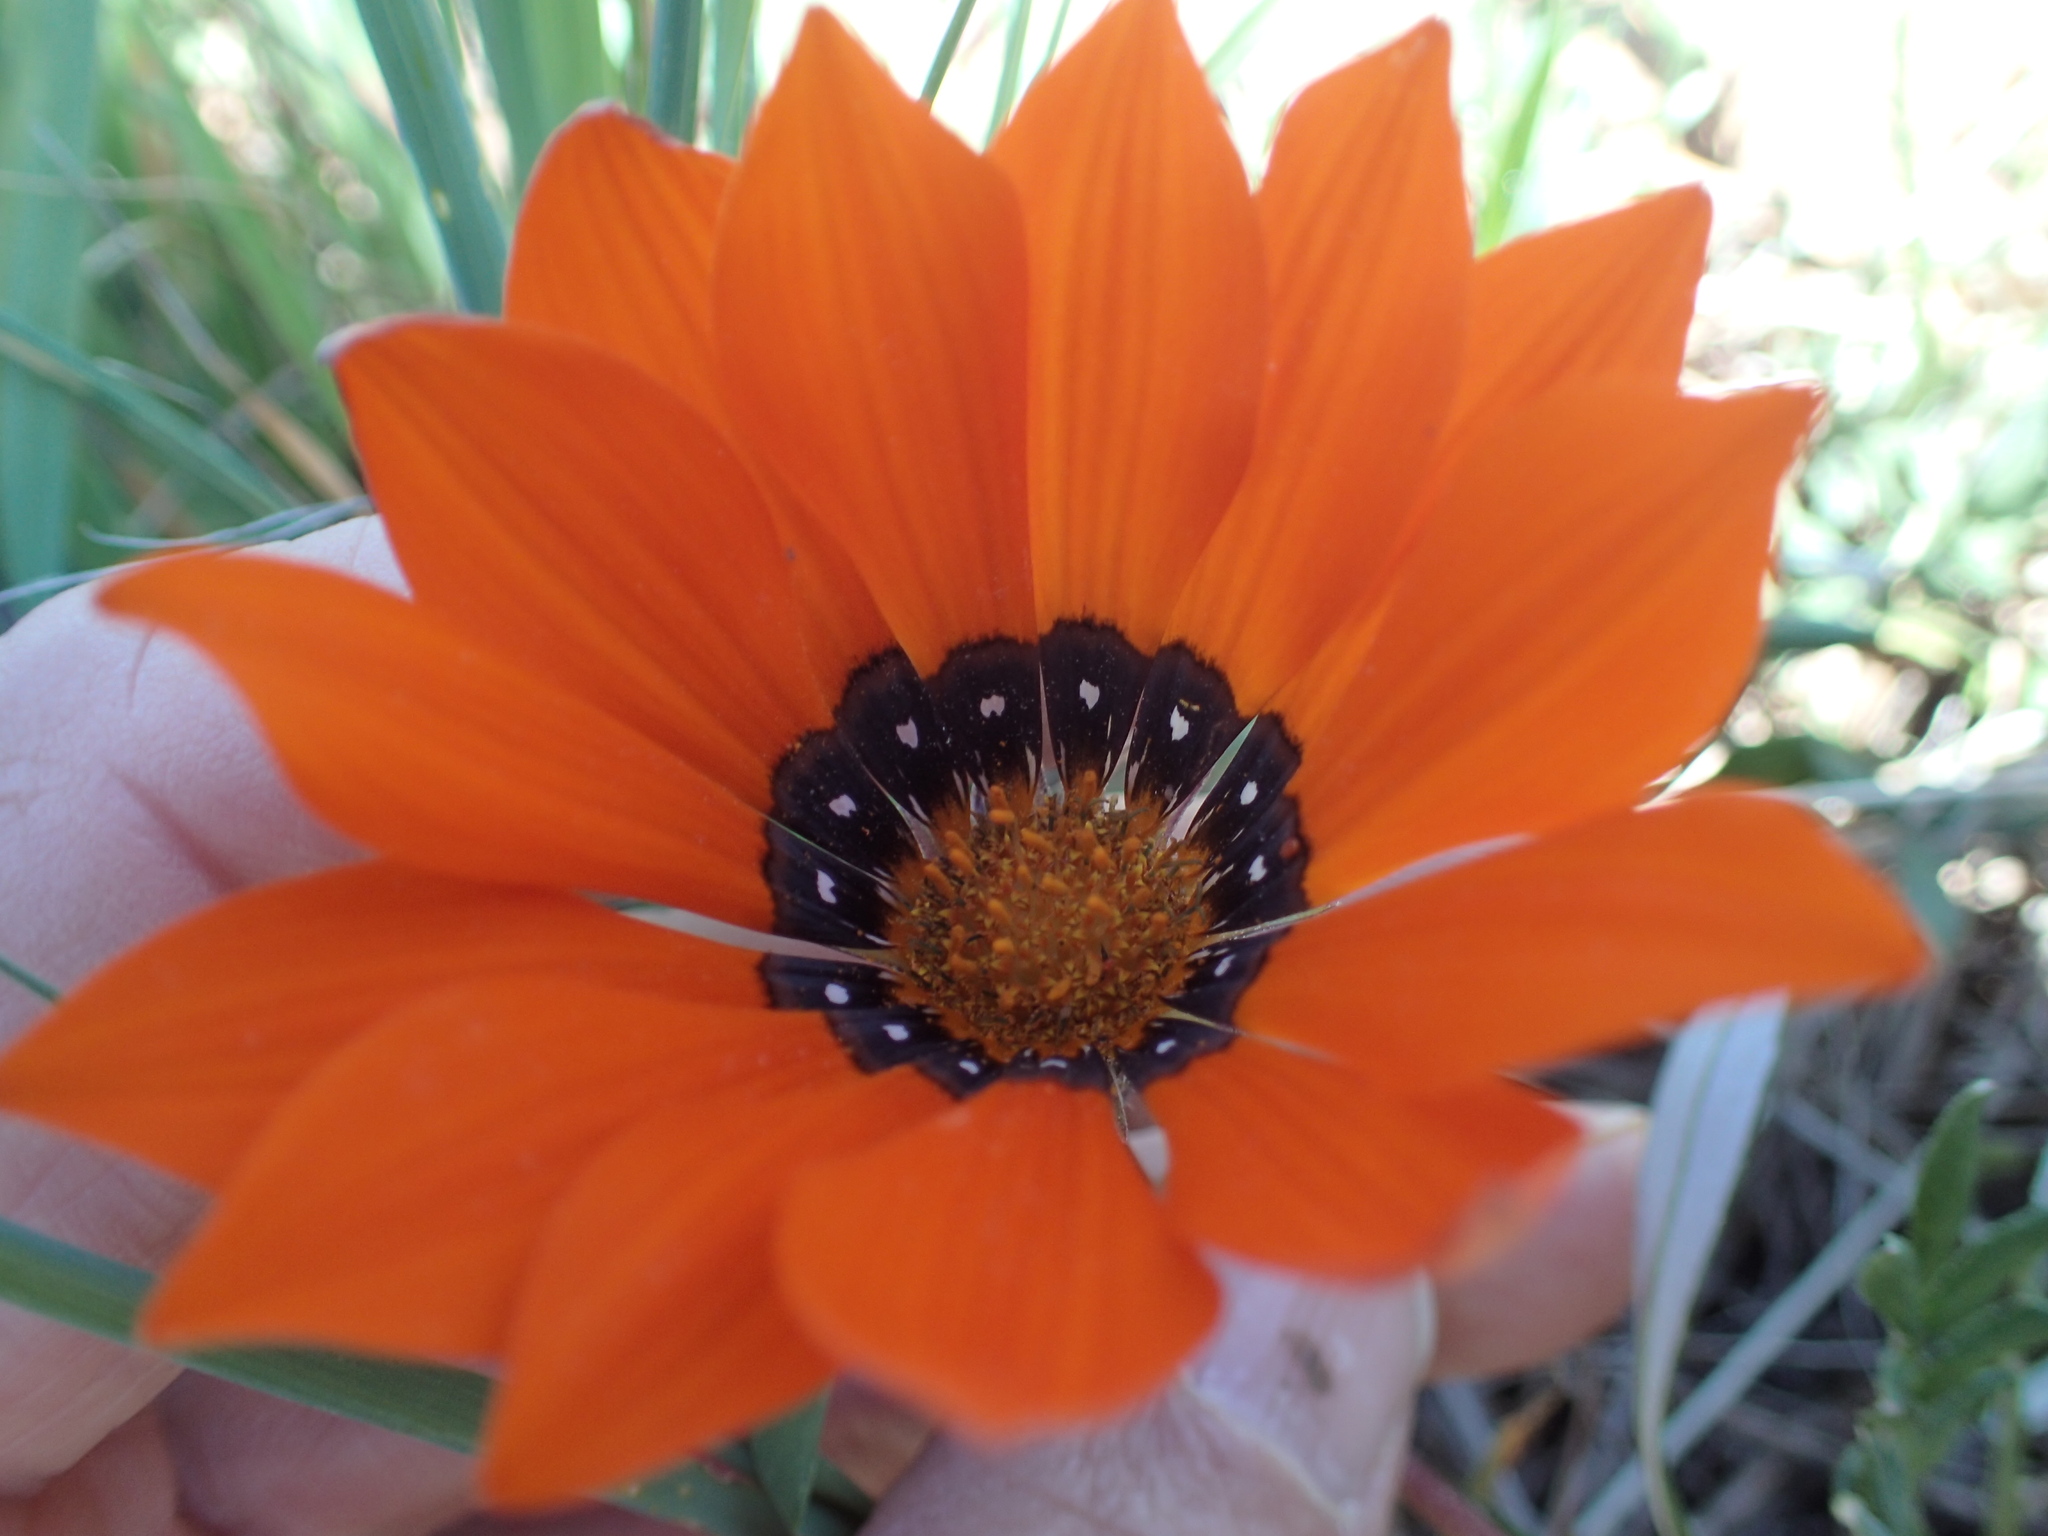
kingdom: Plantae
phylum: Tracheophyta
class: Magnoliopsida
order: Asterales
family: Asteraceae
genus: Gazania
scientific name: Gazania rigida
